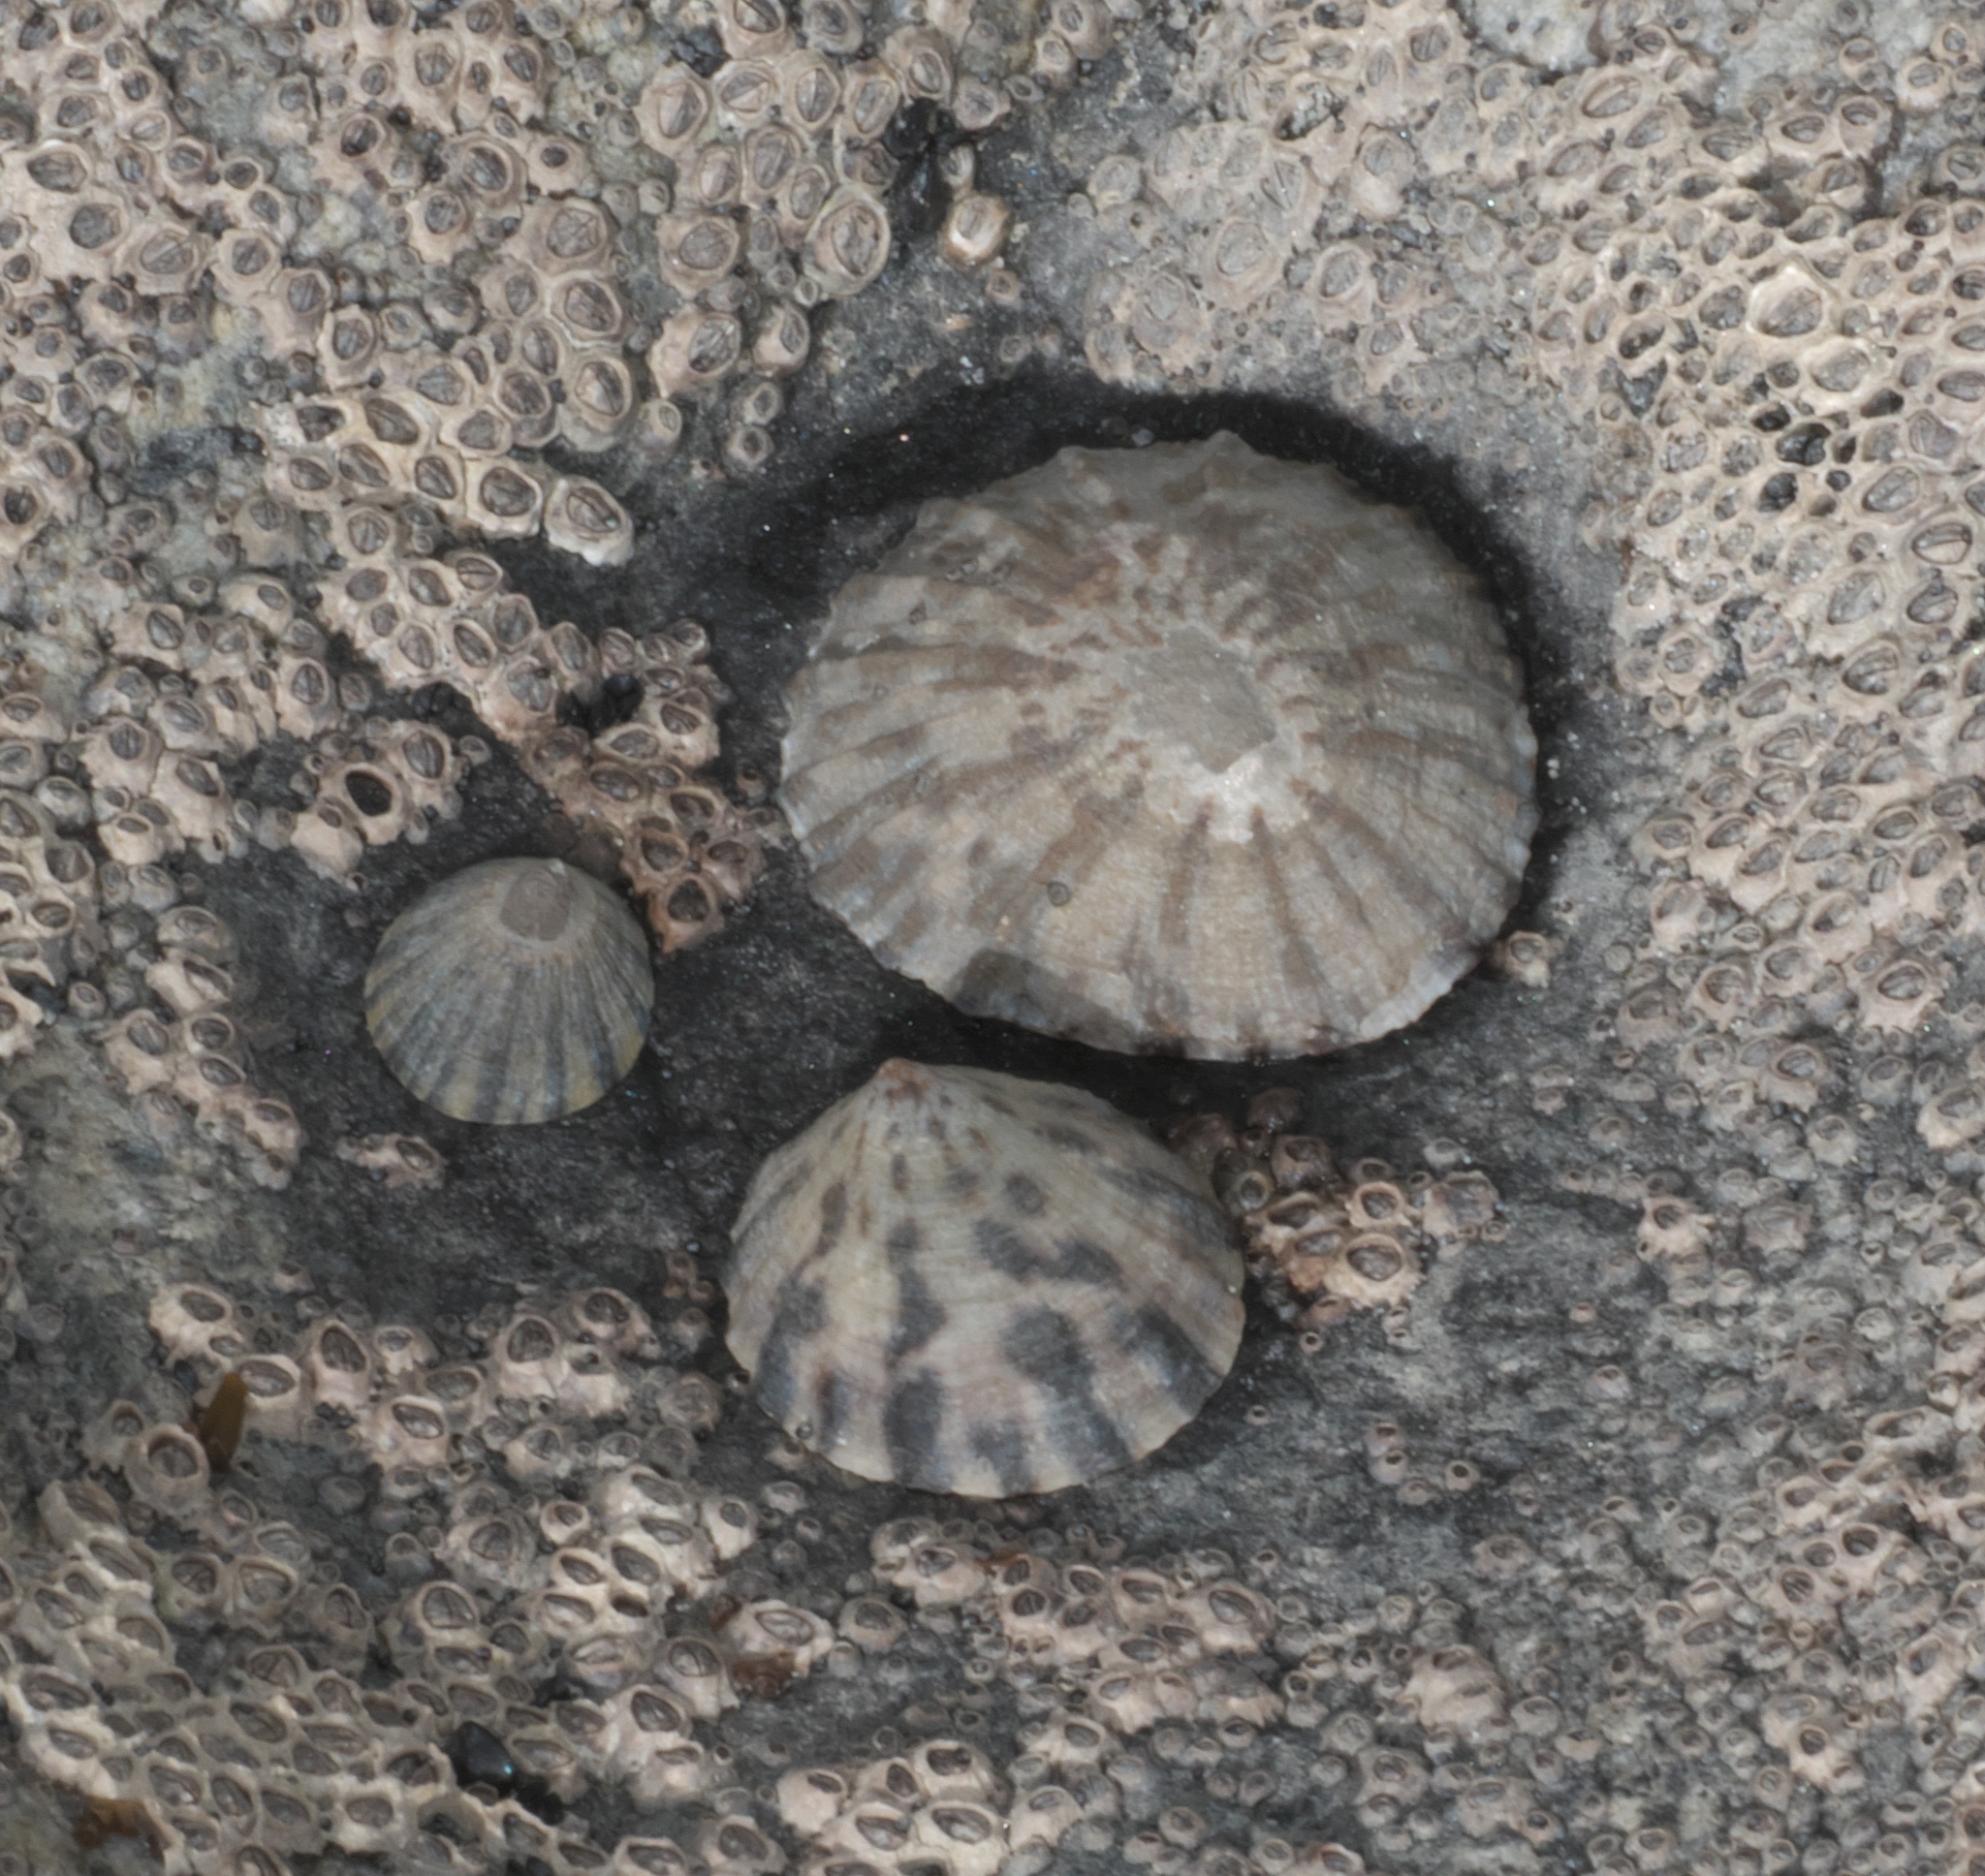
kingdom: Animalia
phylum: Mollusca
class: Gastropoda
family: Nacellidae
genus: Cellana
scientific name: Cellana radians
